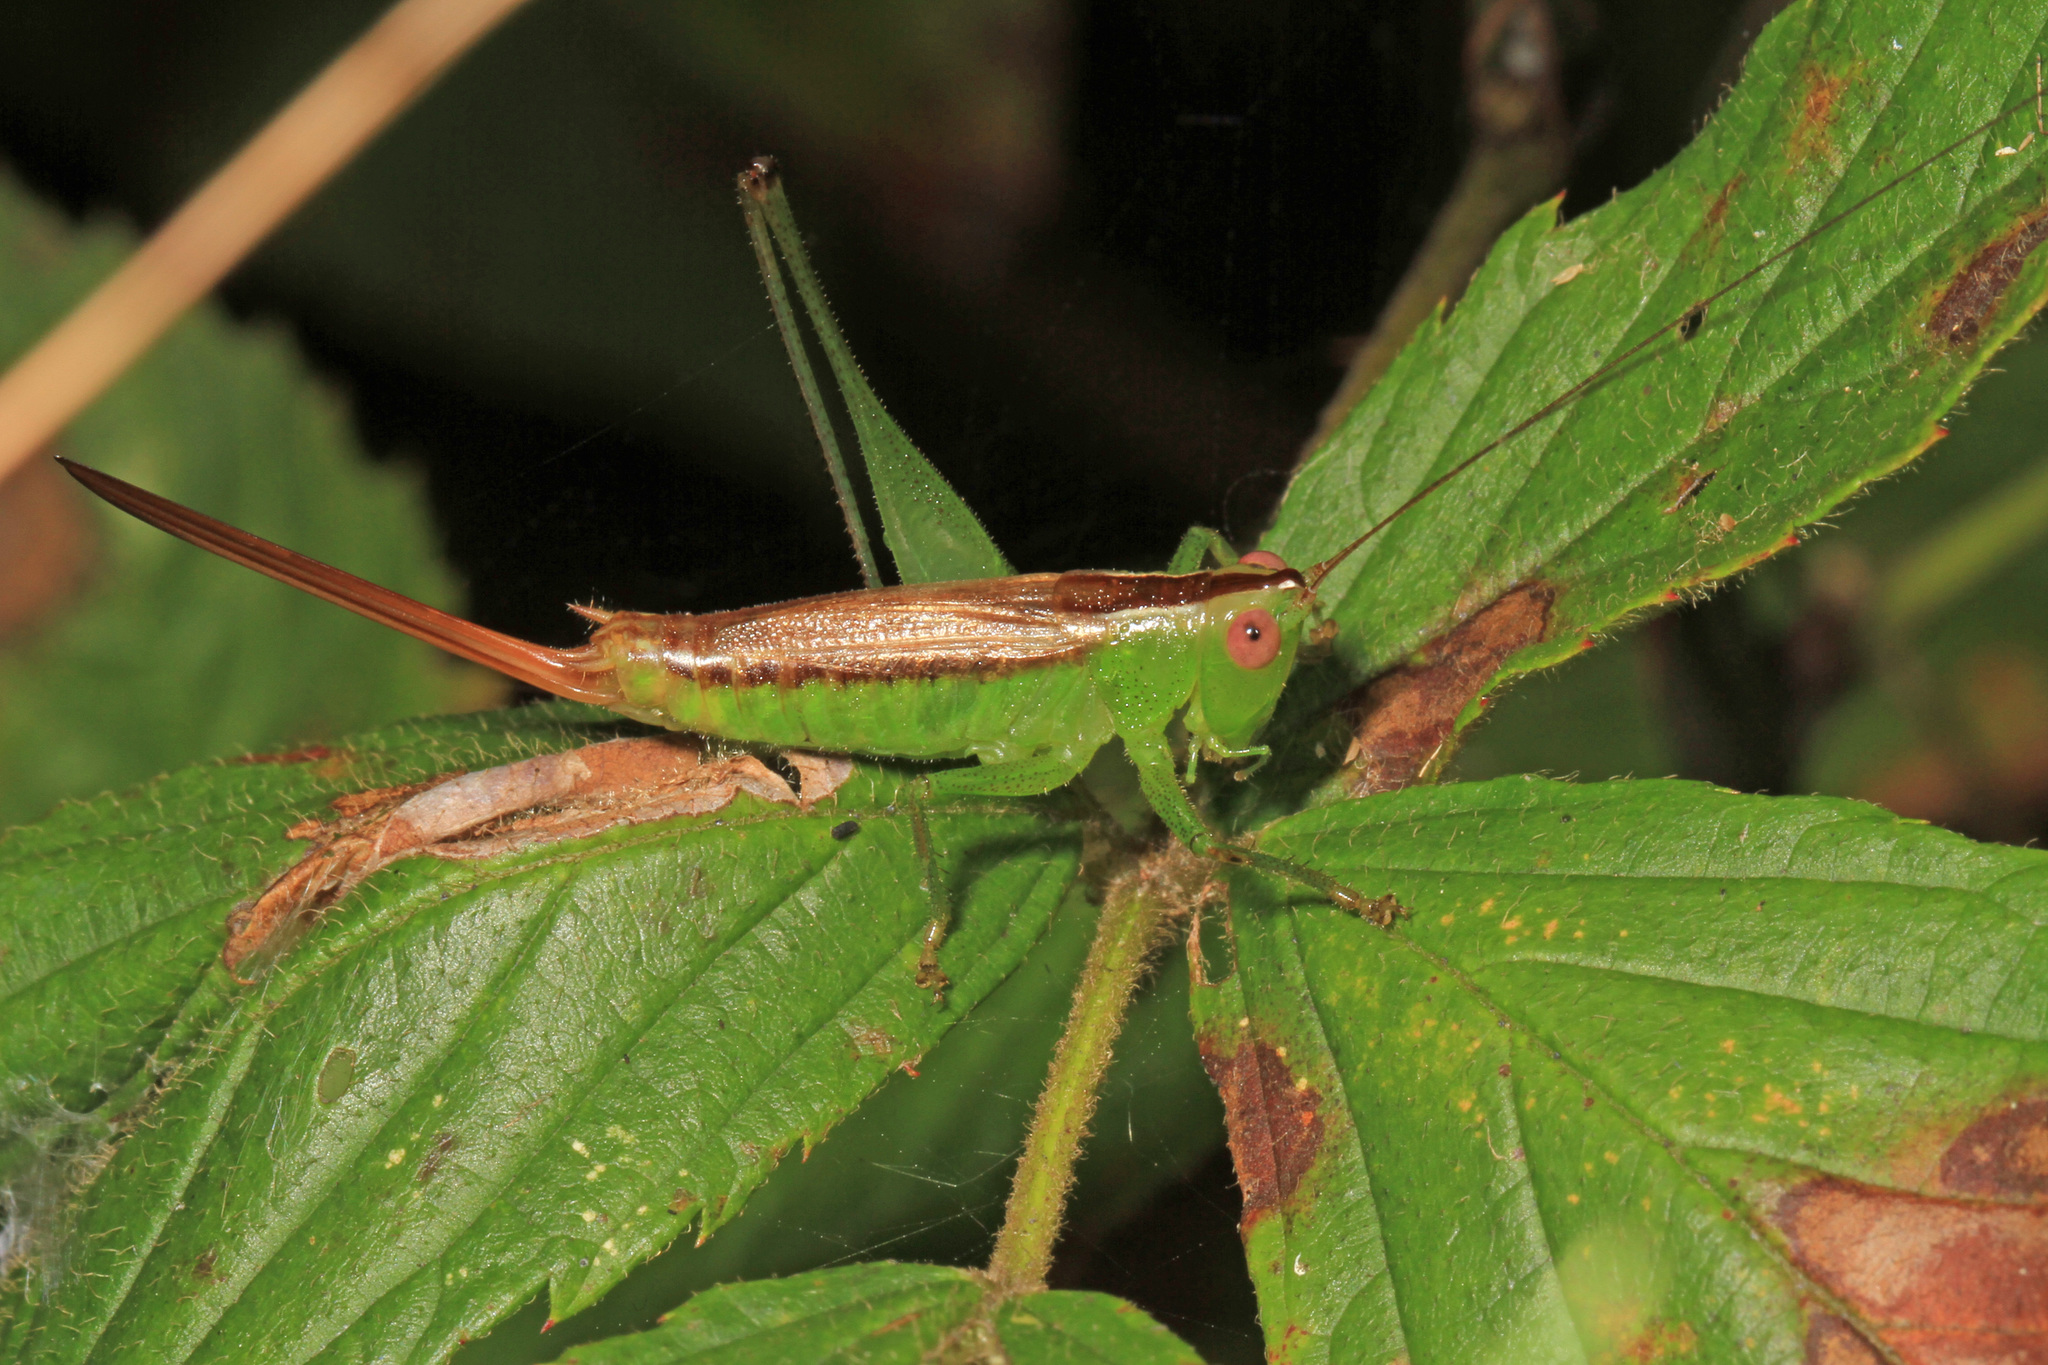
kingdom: Animalia
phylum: Arthropoda
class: Insecta
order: Orthoptera
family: Tettigoniidae
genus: Conocephalus
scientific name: Conocephalus brevipennis
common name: Short-winged meadow katydid
